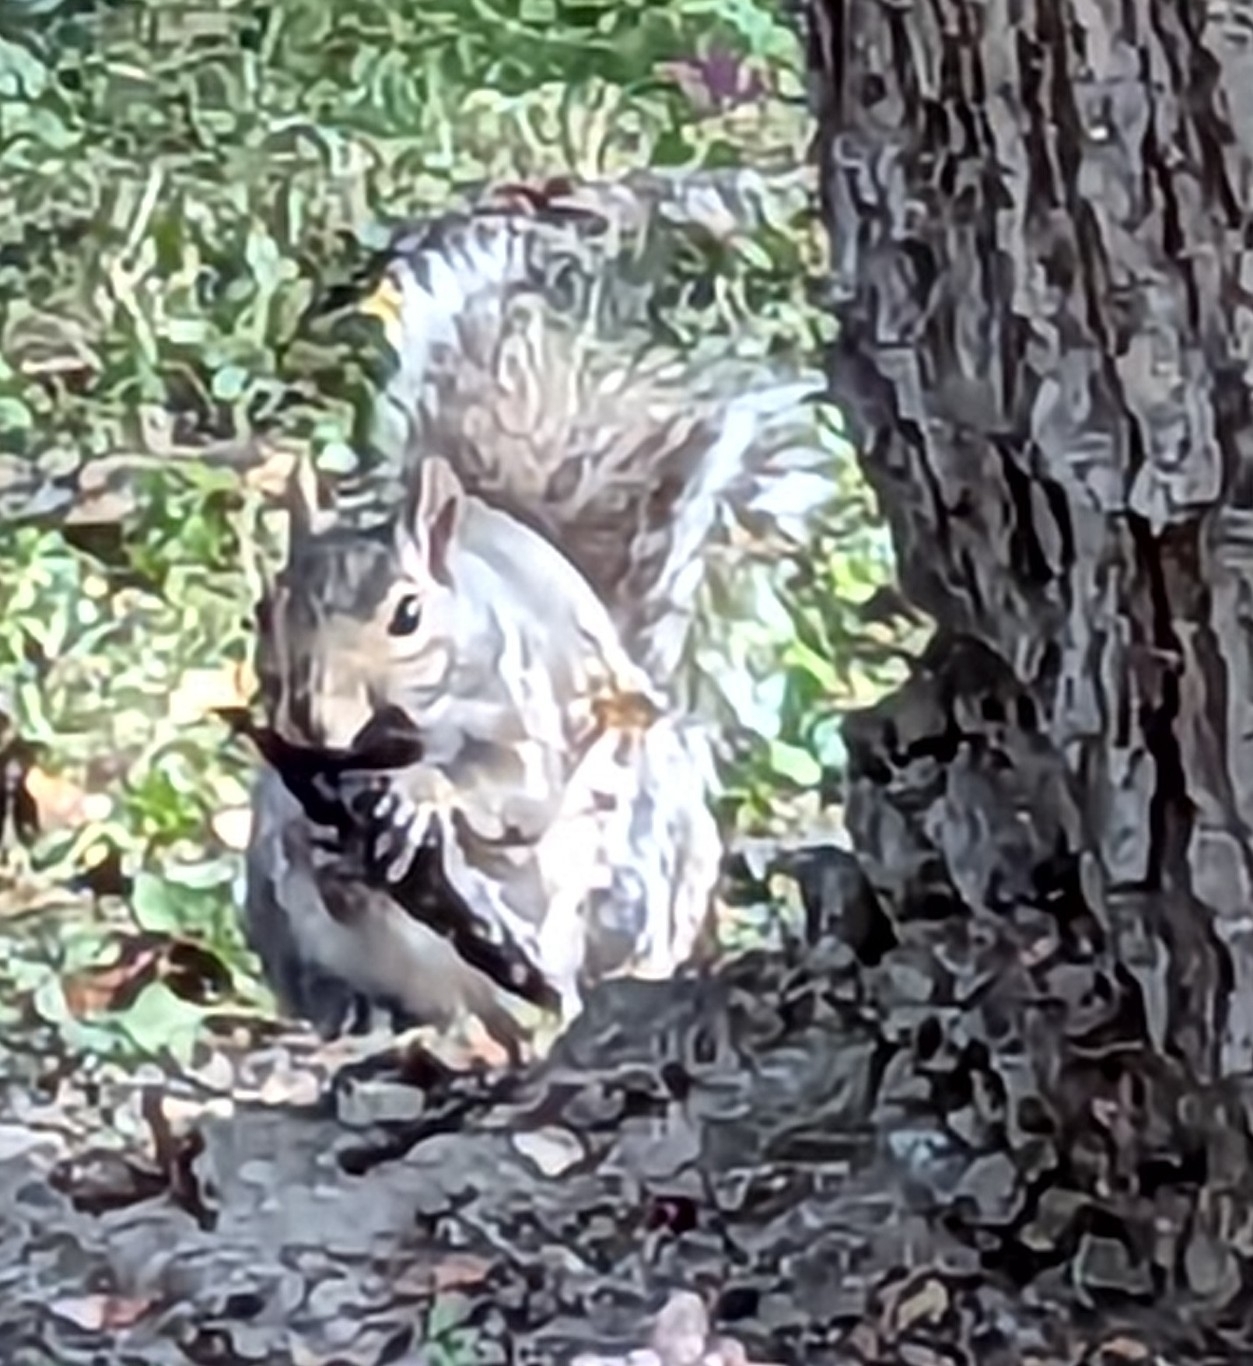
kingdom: Animalia
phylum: Chordata
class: Mammalia
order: Rodentia
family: Sciuridae
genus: Sciurus
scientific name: Sciurus carolinensis
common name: Eastern gray squirrel
